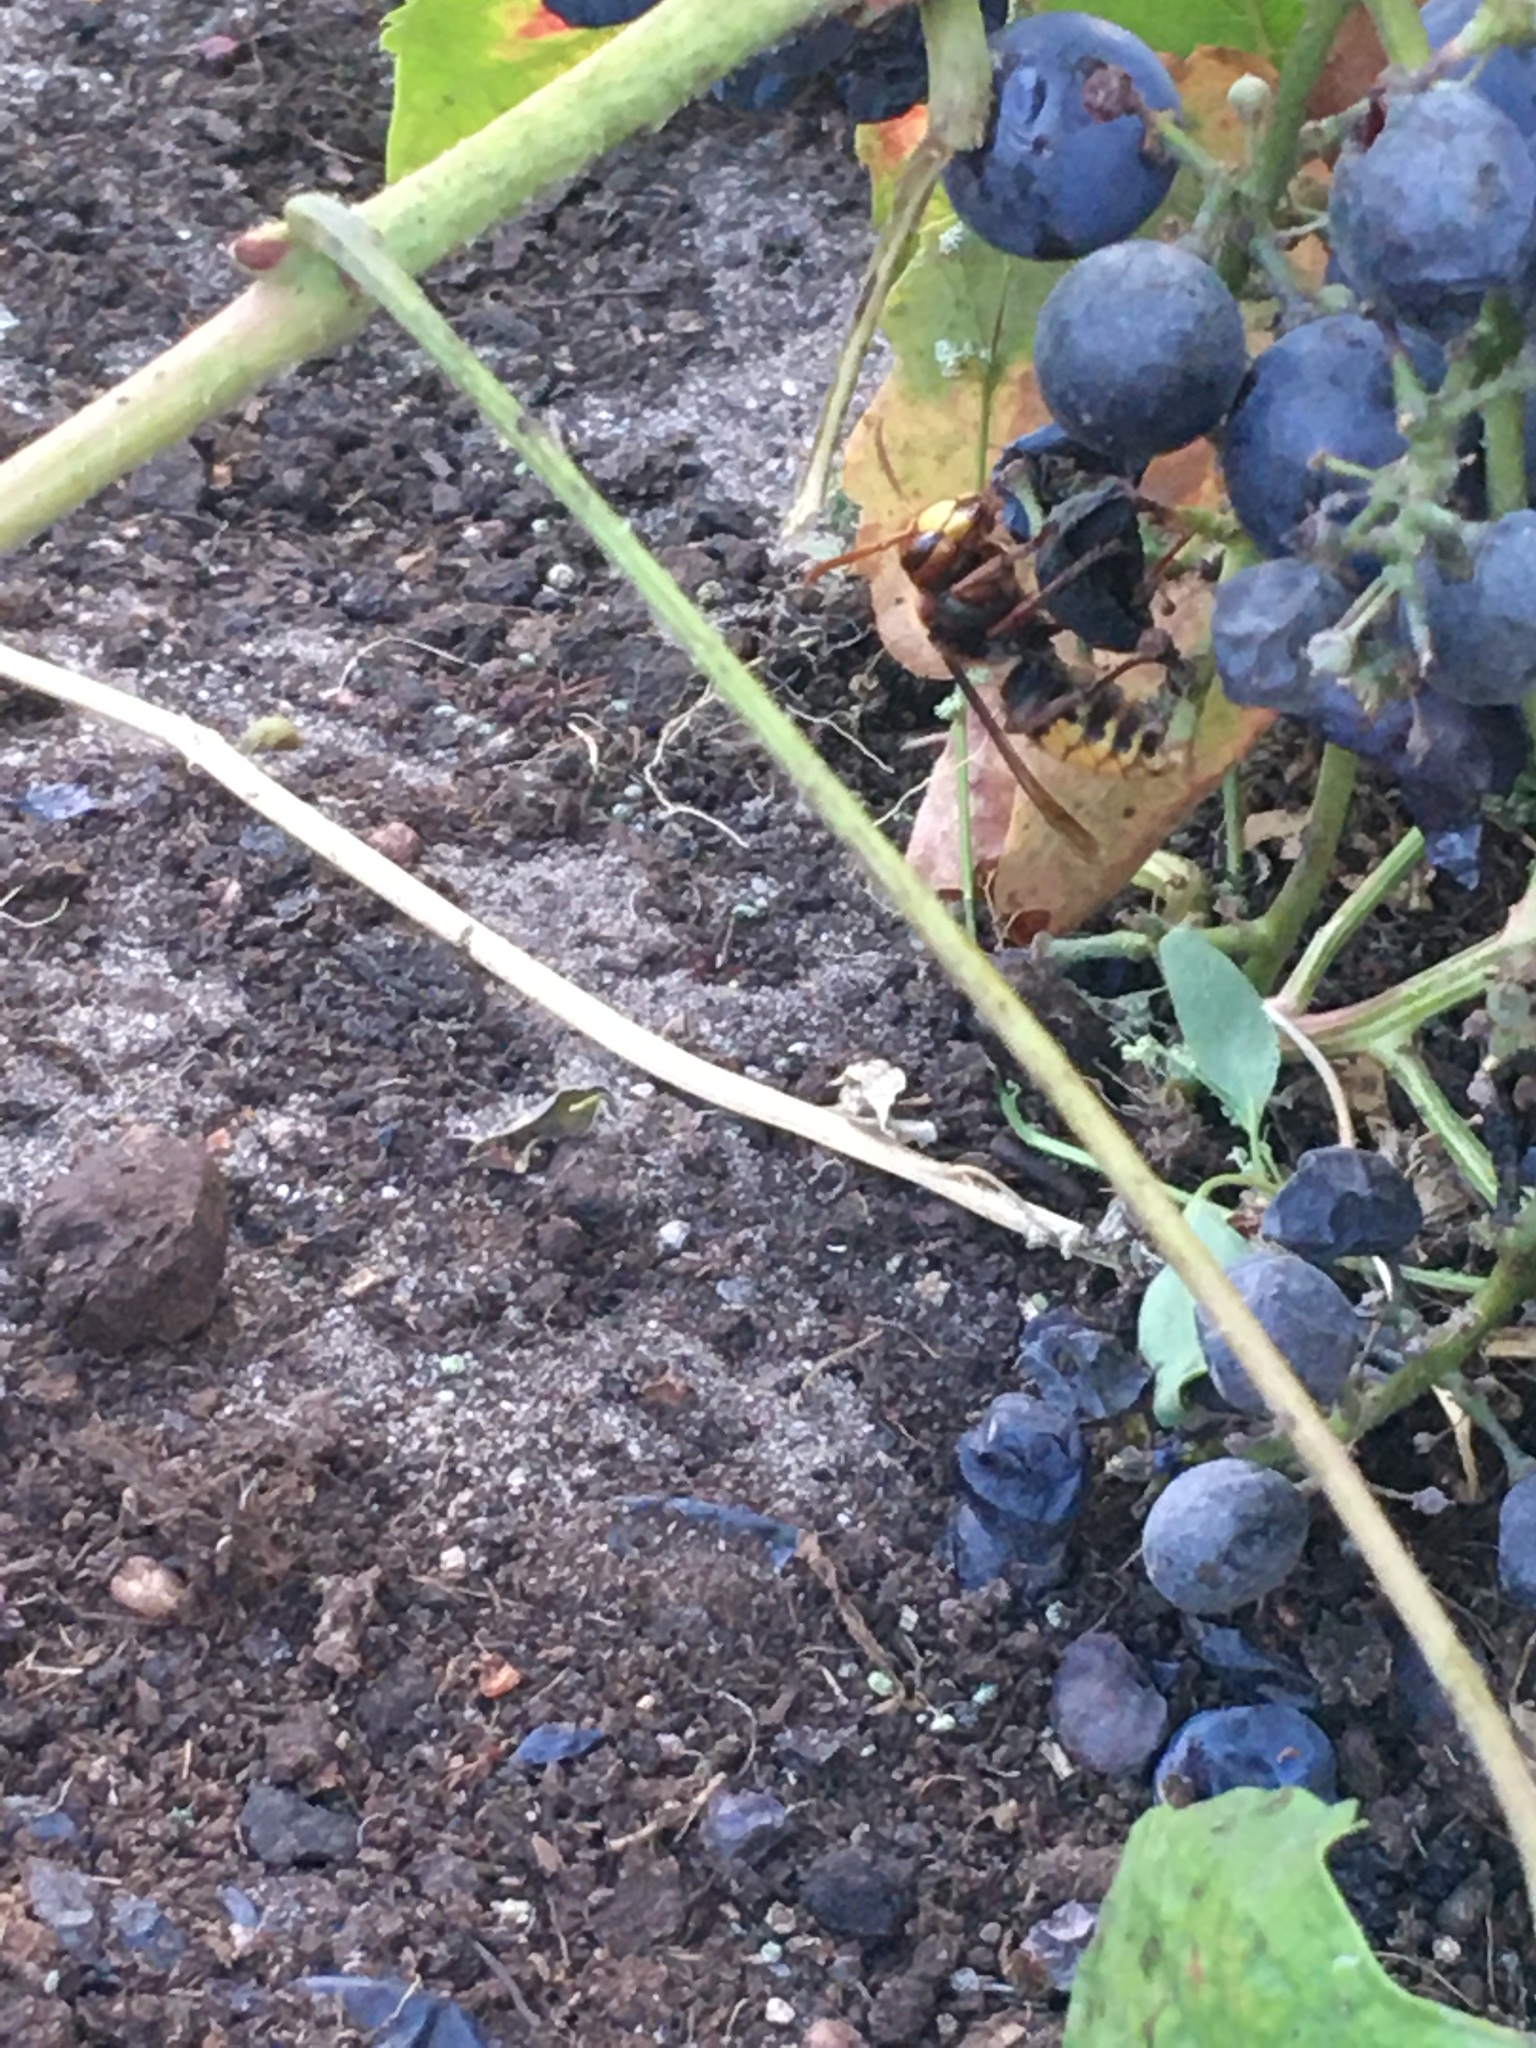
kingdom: Animalia
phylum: Arthropoda
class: Insecta
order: Hymenoptera
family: Vespidae
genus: Vespa
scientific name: Vespa crabro
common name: Hornet
